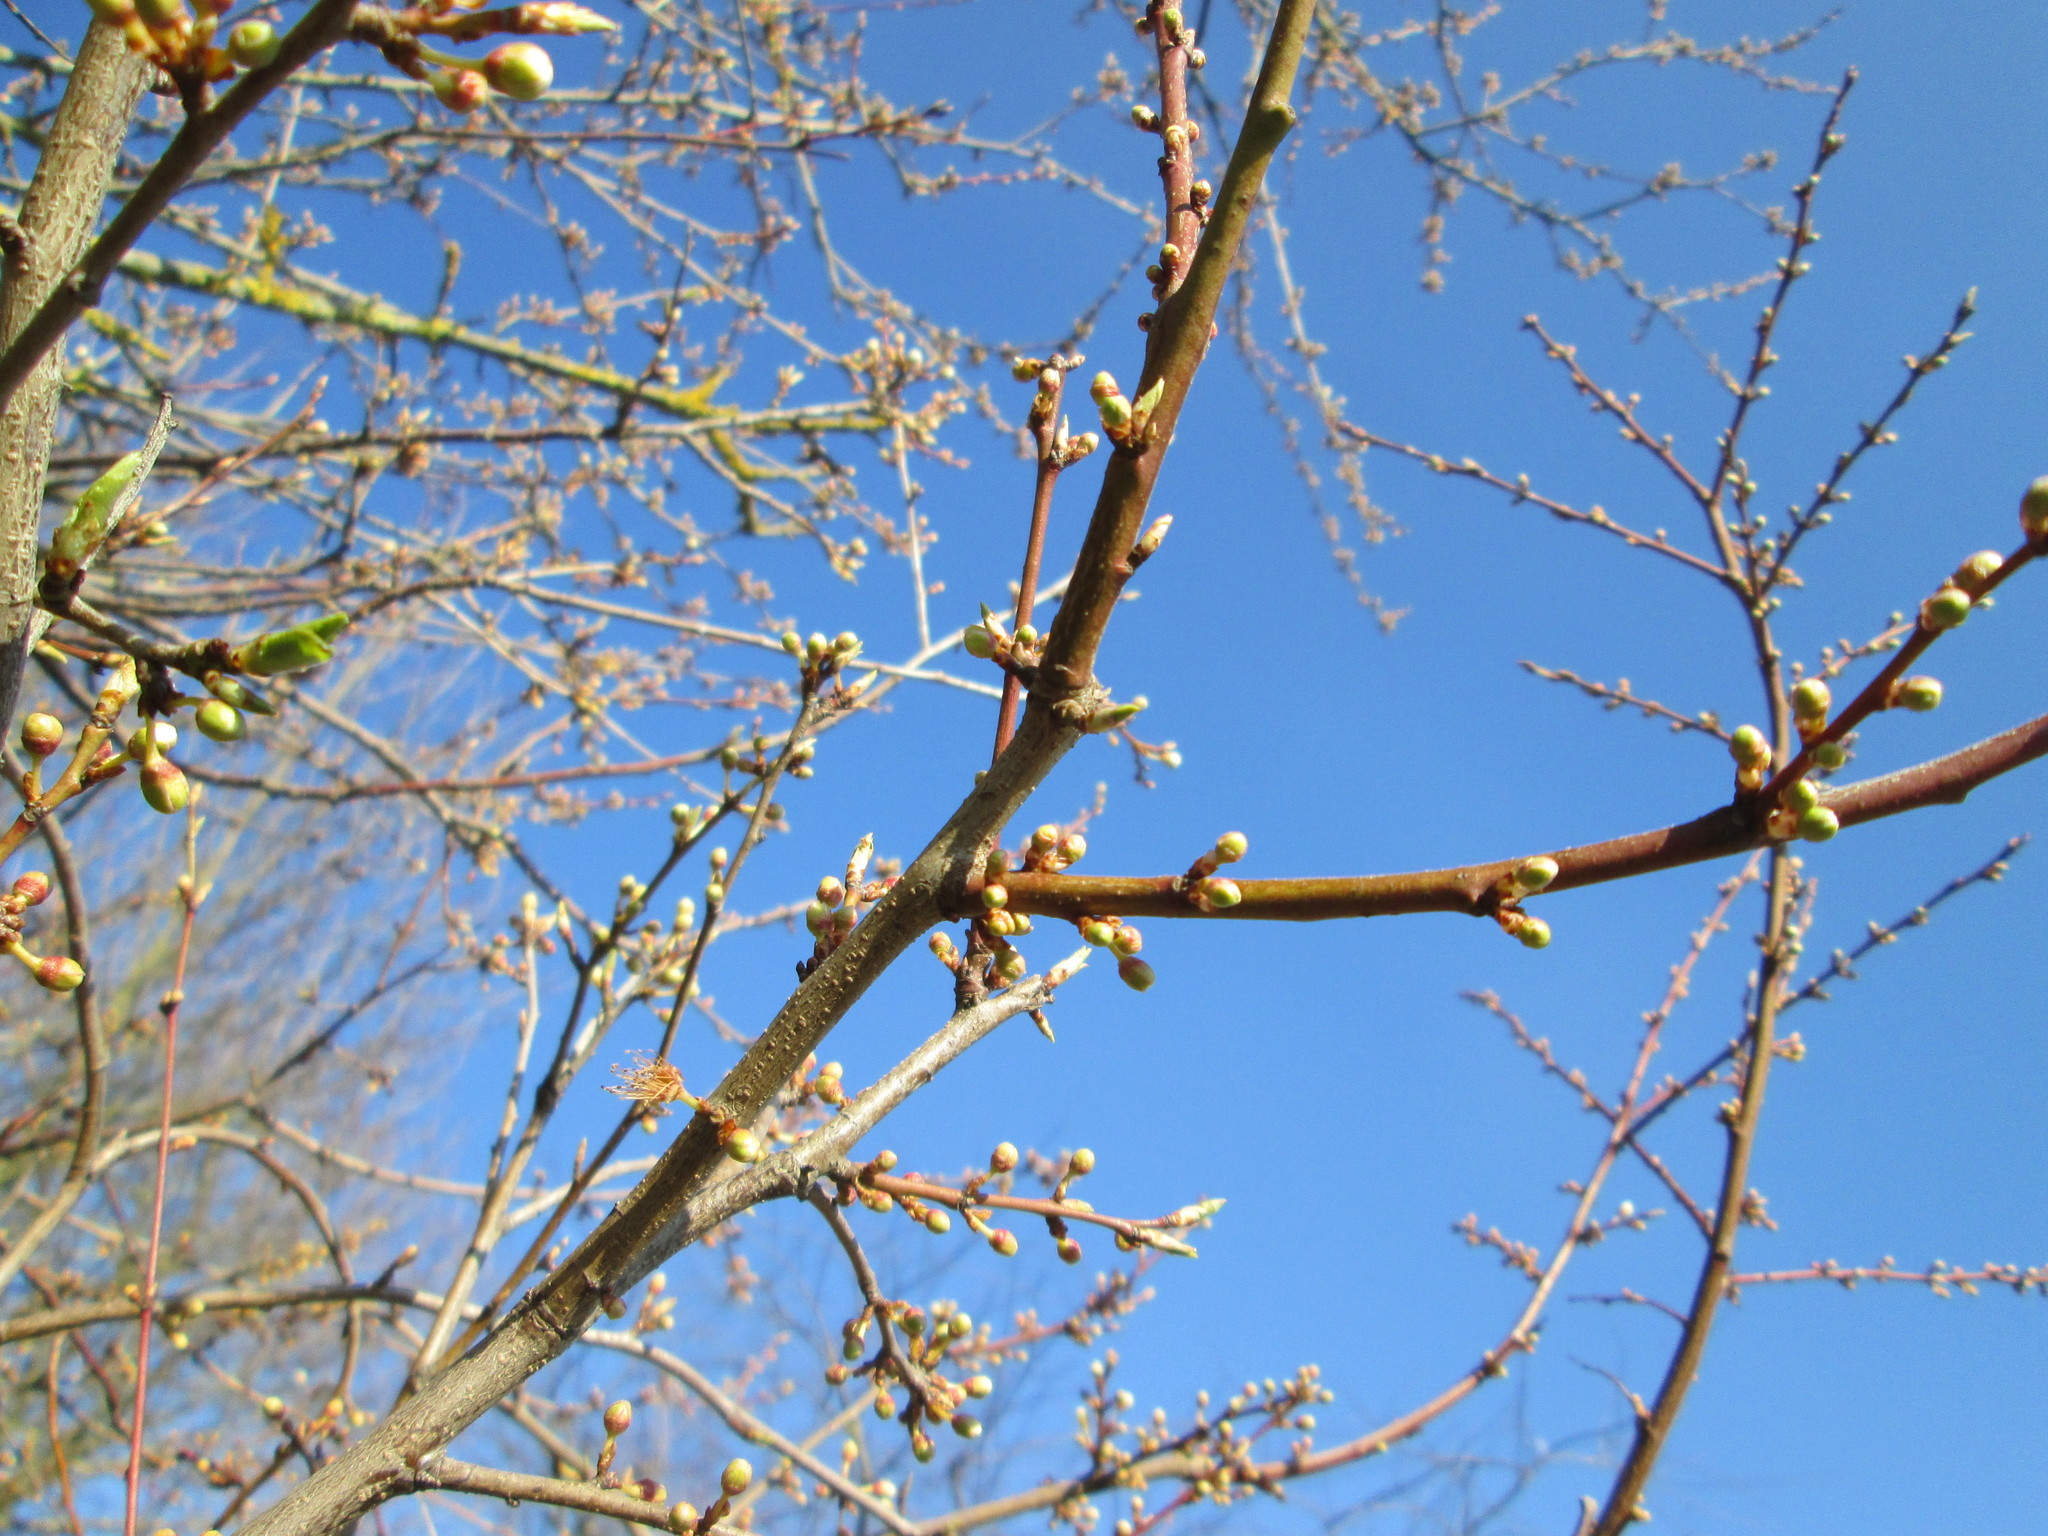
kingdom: Plantae
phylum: Tracheophyta
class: Magnoliopsida
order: Rosales
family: Rosaceae
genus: Prunus
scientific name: Prunus cerasifera
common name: Cherry plum
